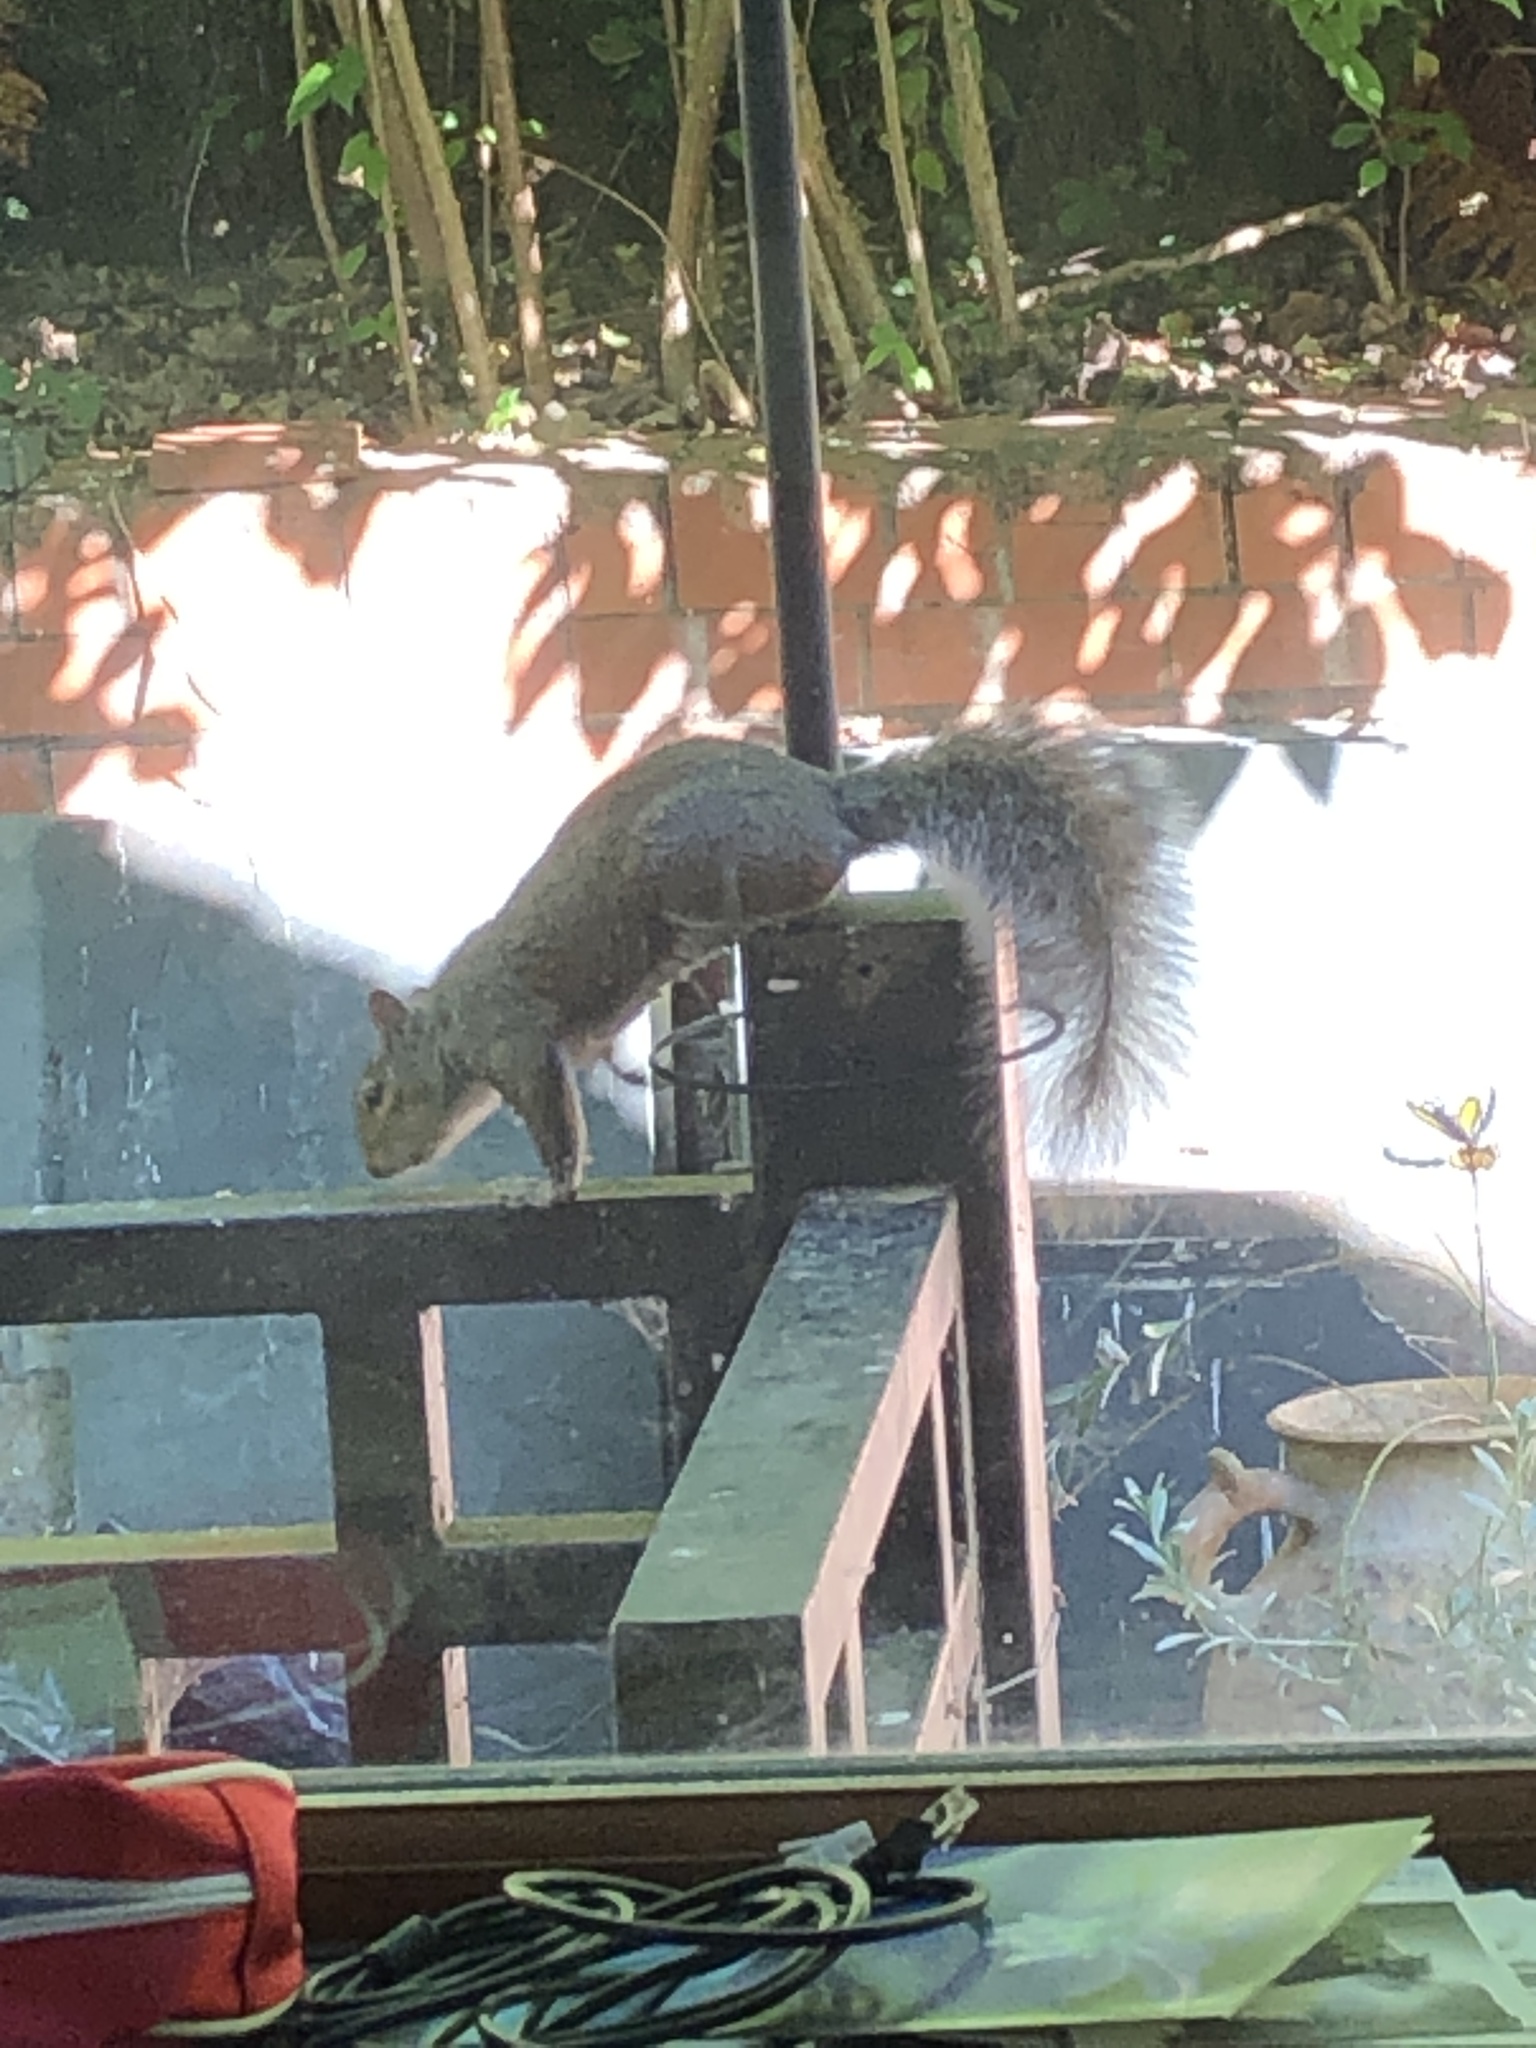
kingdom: Animalia
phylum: Chordata
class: Mammalia
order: Rodentia
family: Sciuridae
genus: Sciurus
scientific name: Sciurus carolinensis
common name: Eastern gray squirrel
